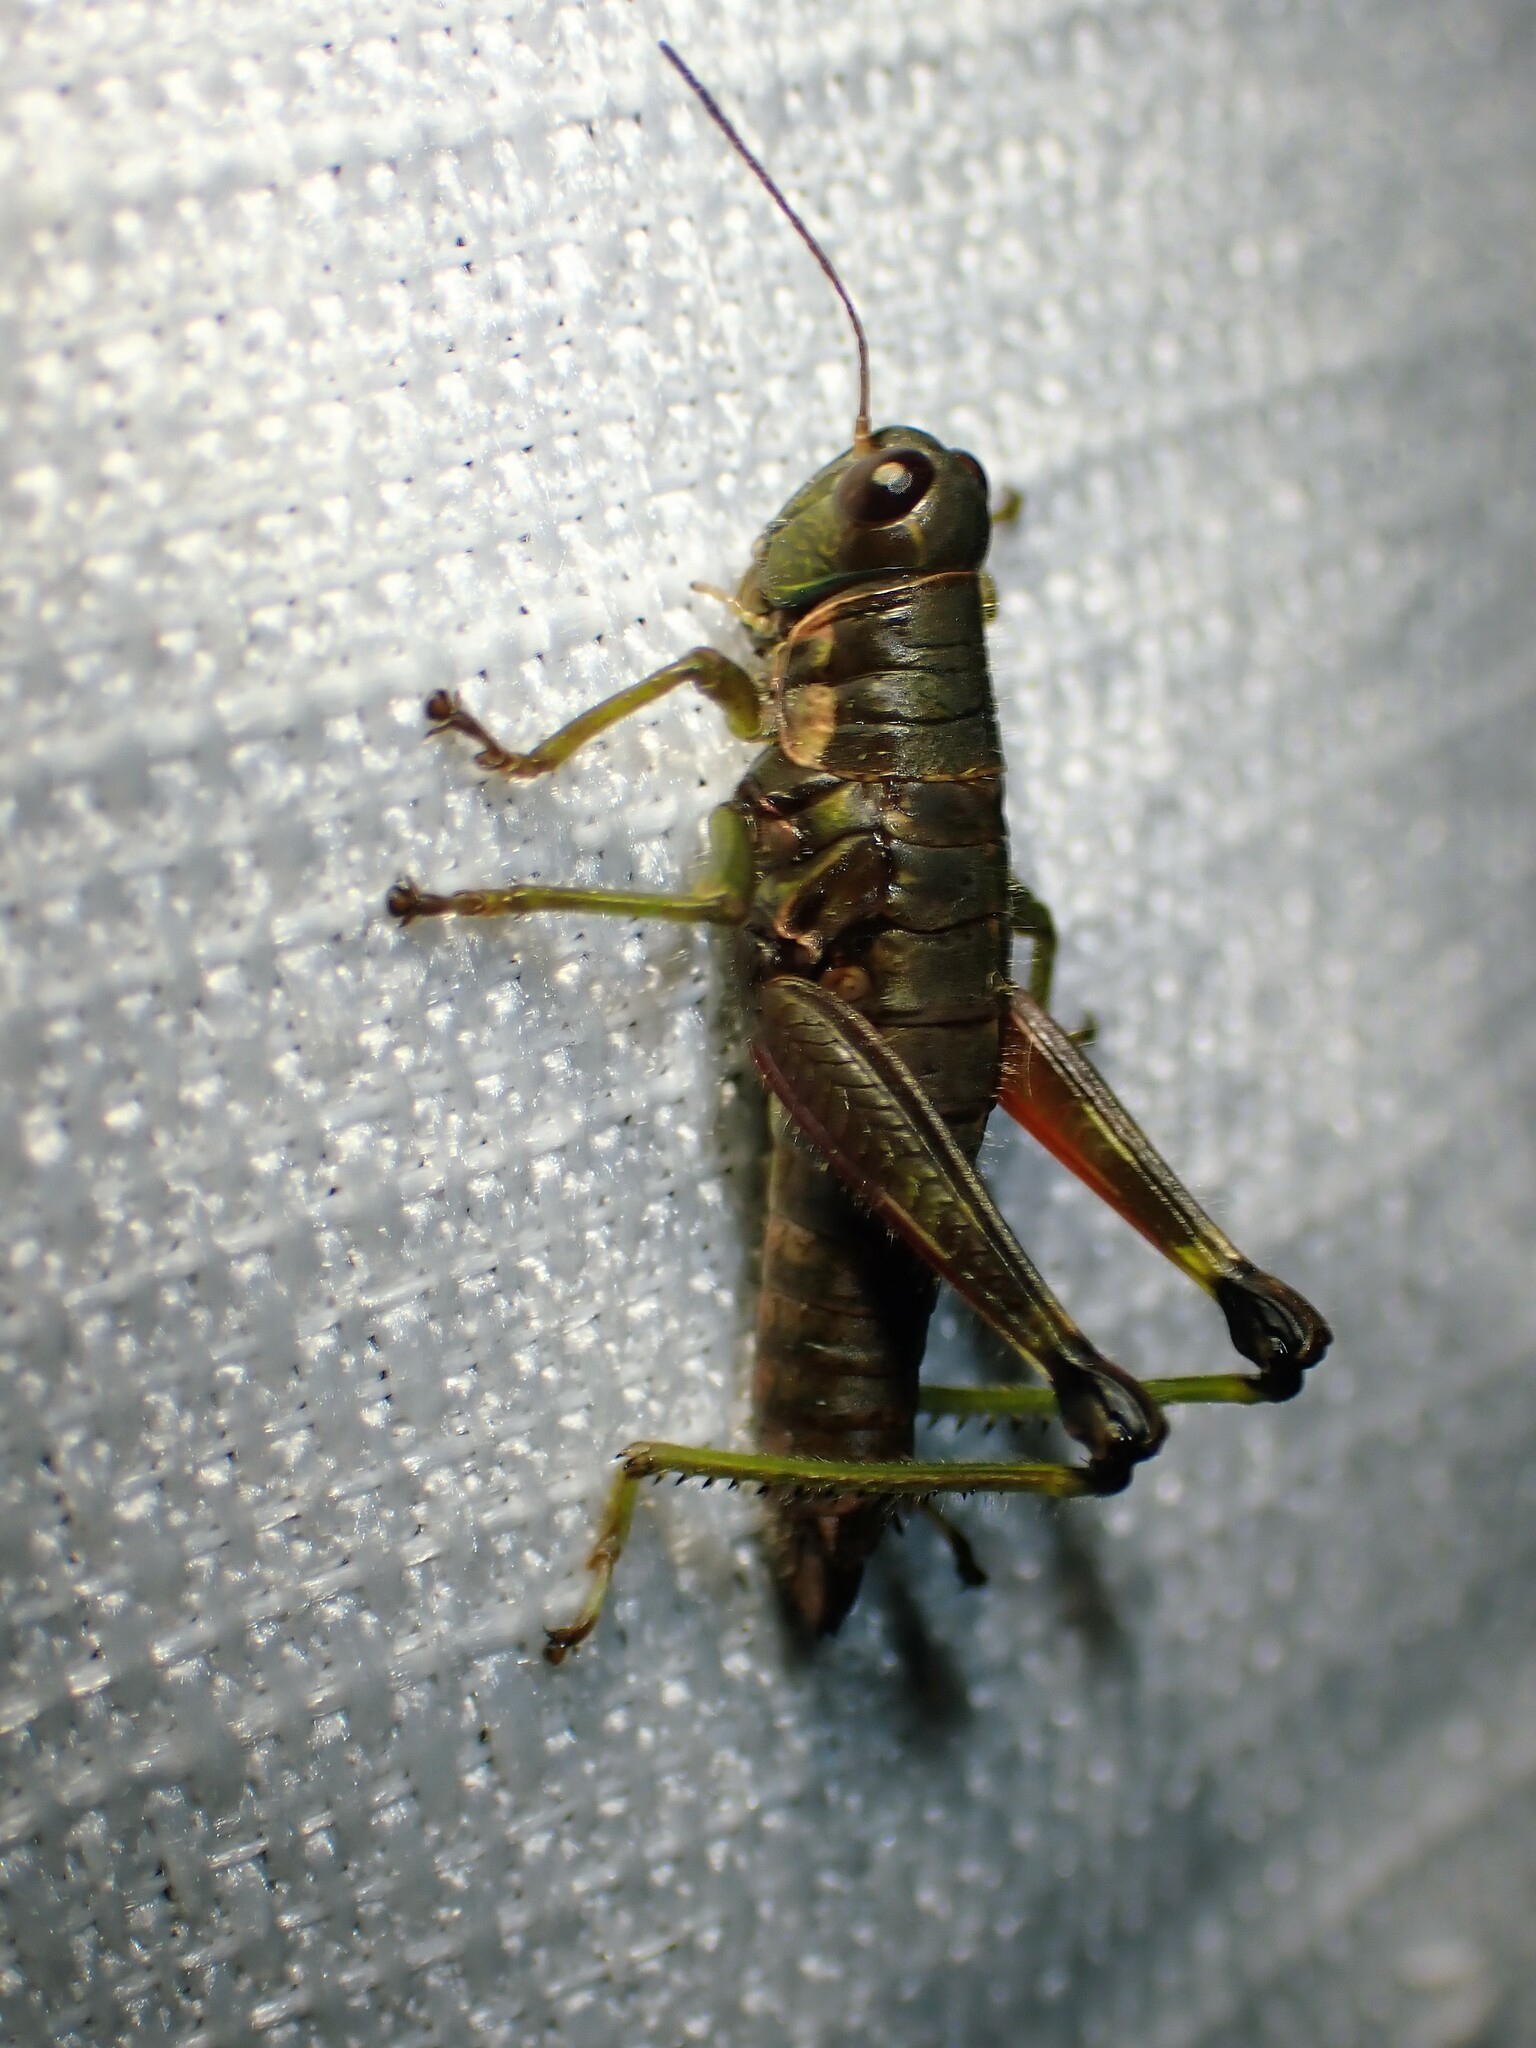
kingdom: Animalia
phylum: Arthropoda
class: Insecta
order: Orthoptera
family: Acrididae
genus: Booneacris
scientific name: Booneacris glacialis
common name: Wingless mountain grasshopper
